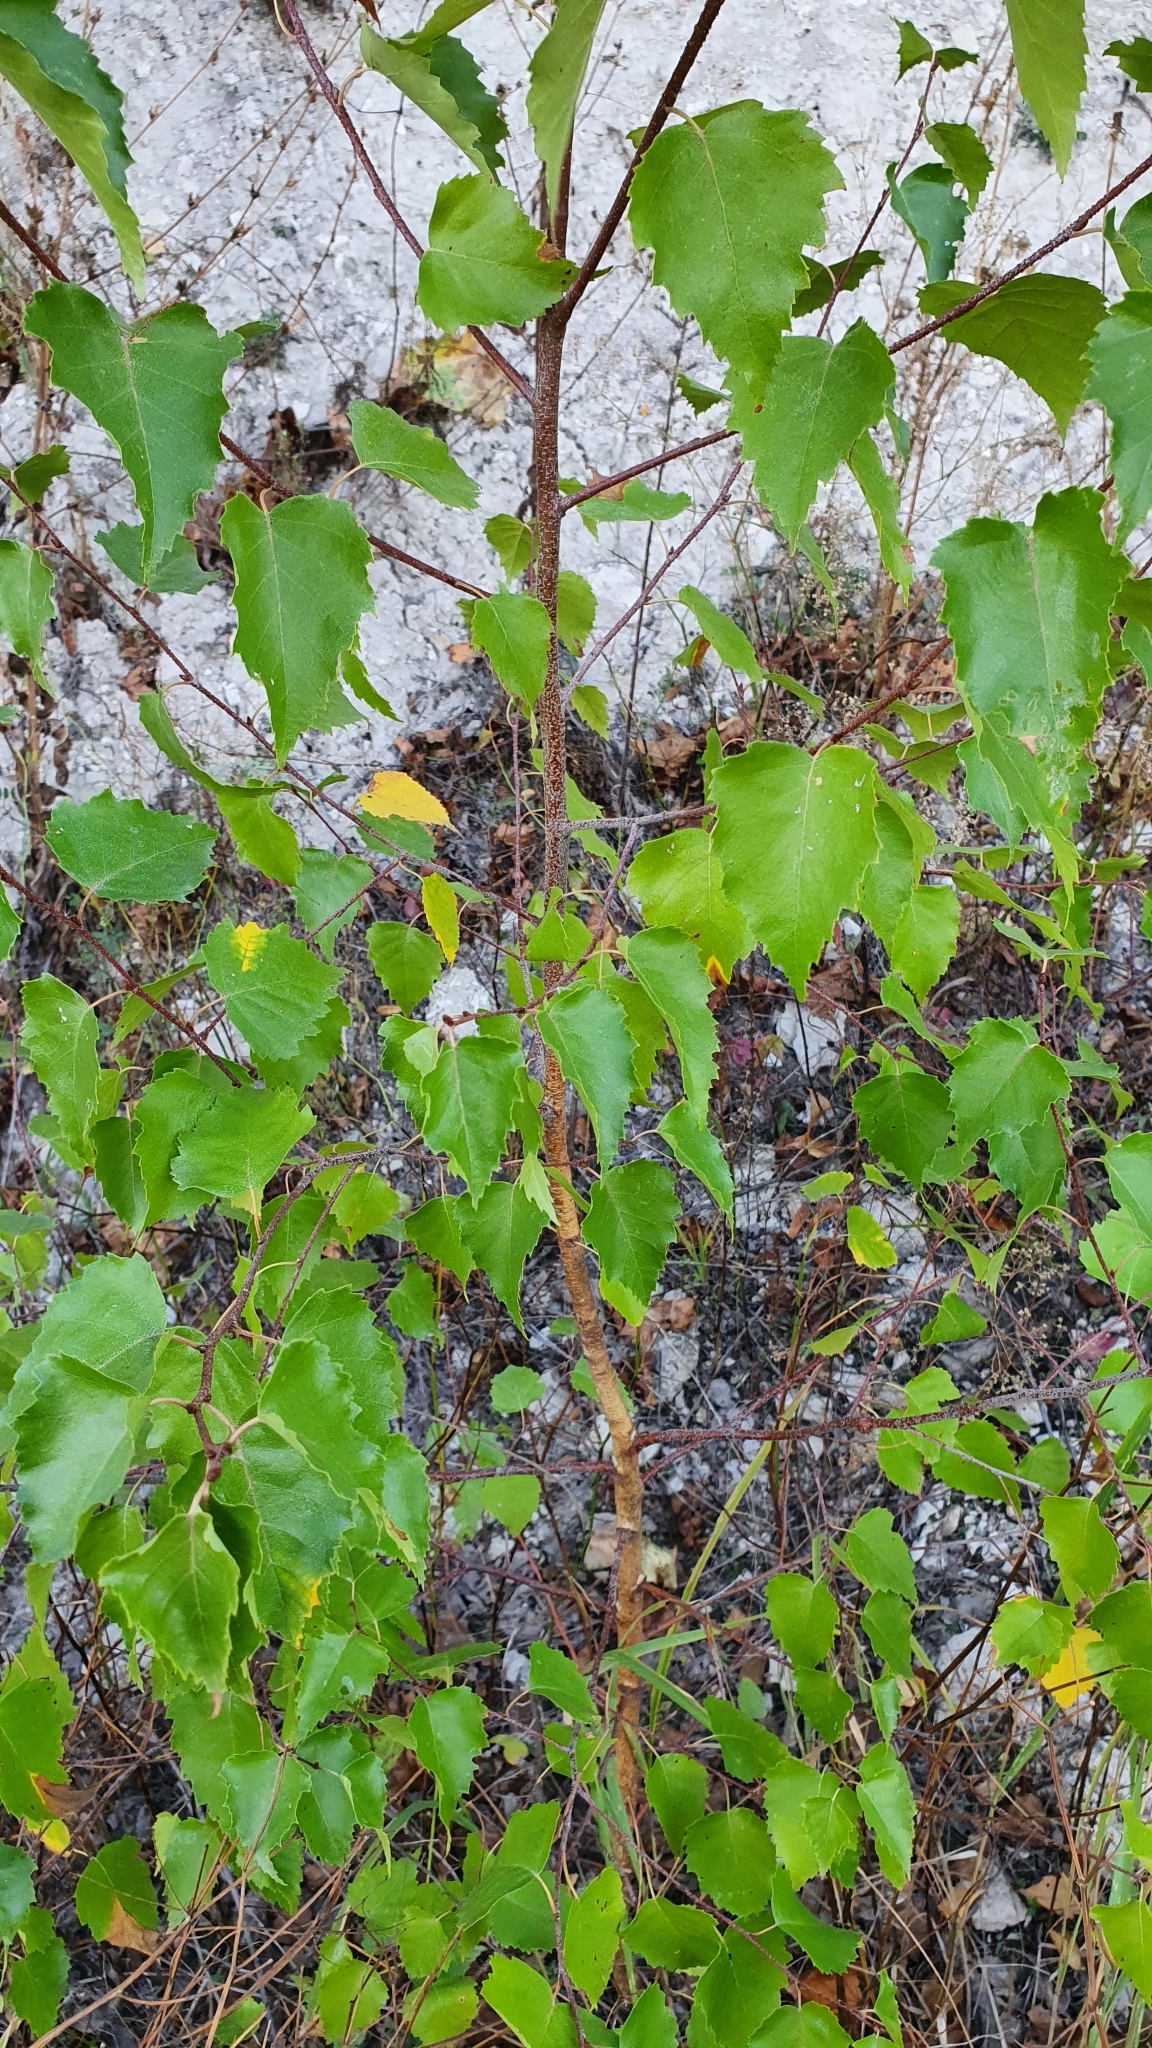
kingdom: Plantae
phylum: Tracheophyta
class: Magnoliopsida
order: Fagales
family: Betulaceae
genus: Betula
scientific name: Betula pendula
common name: Silver birch
